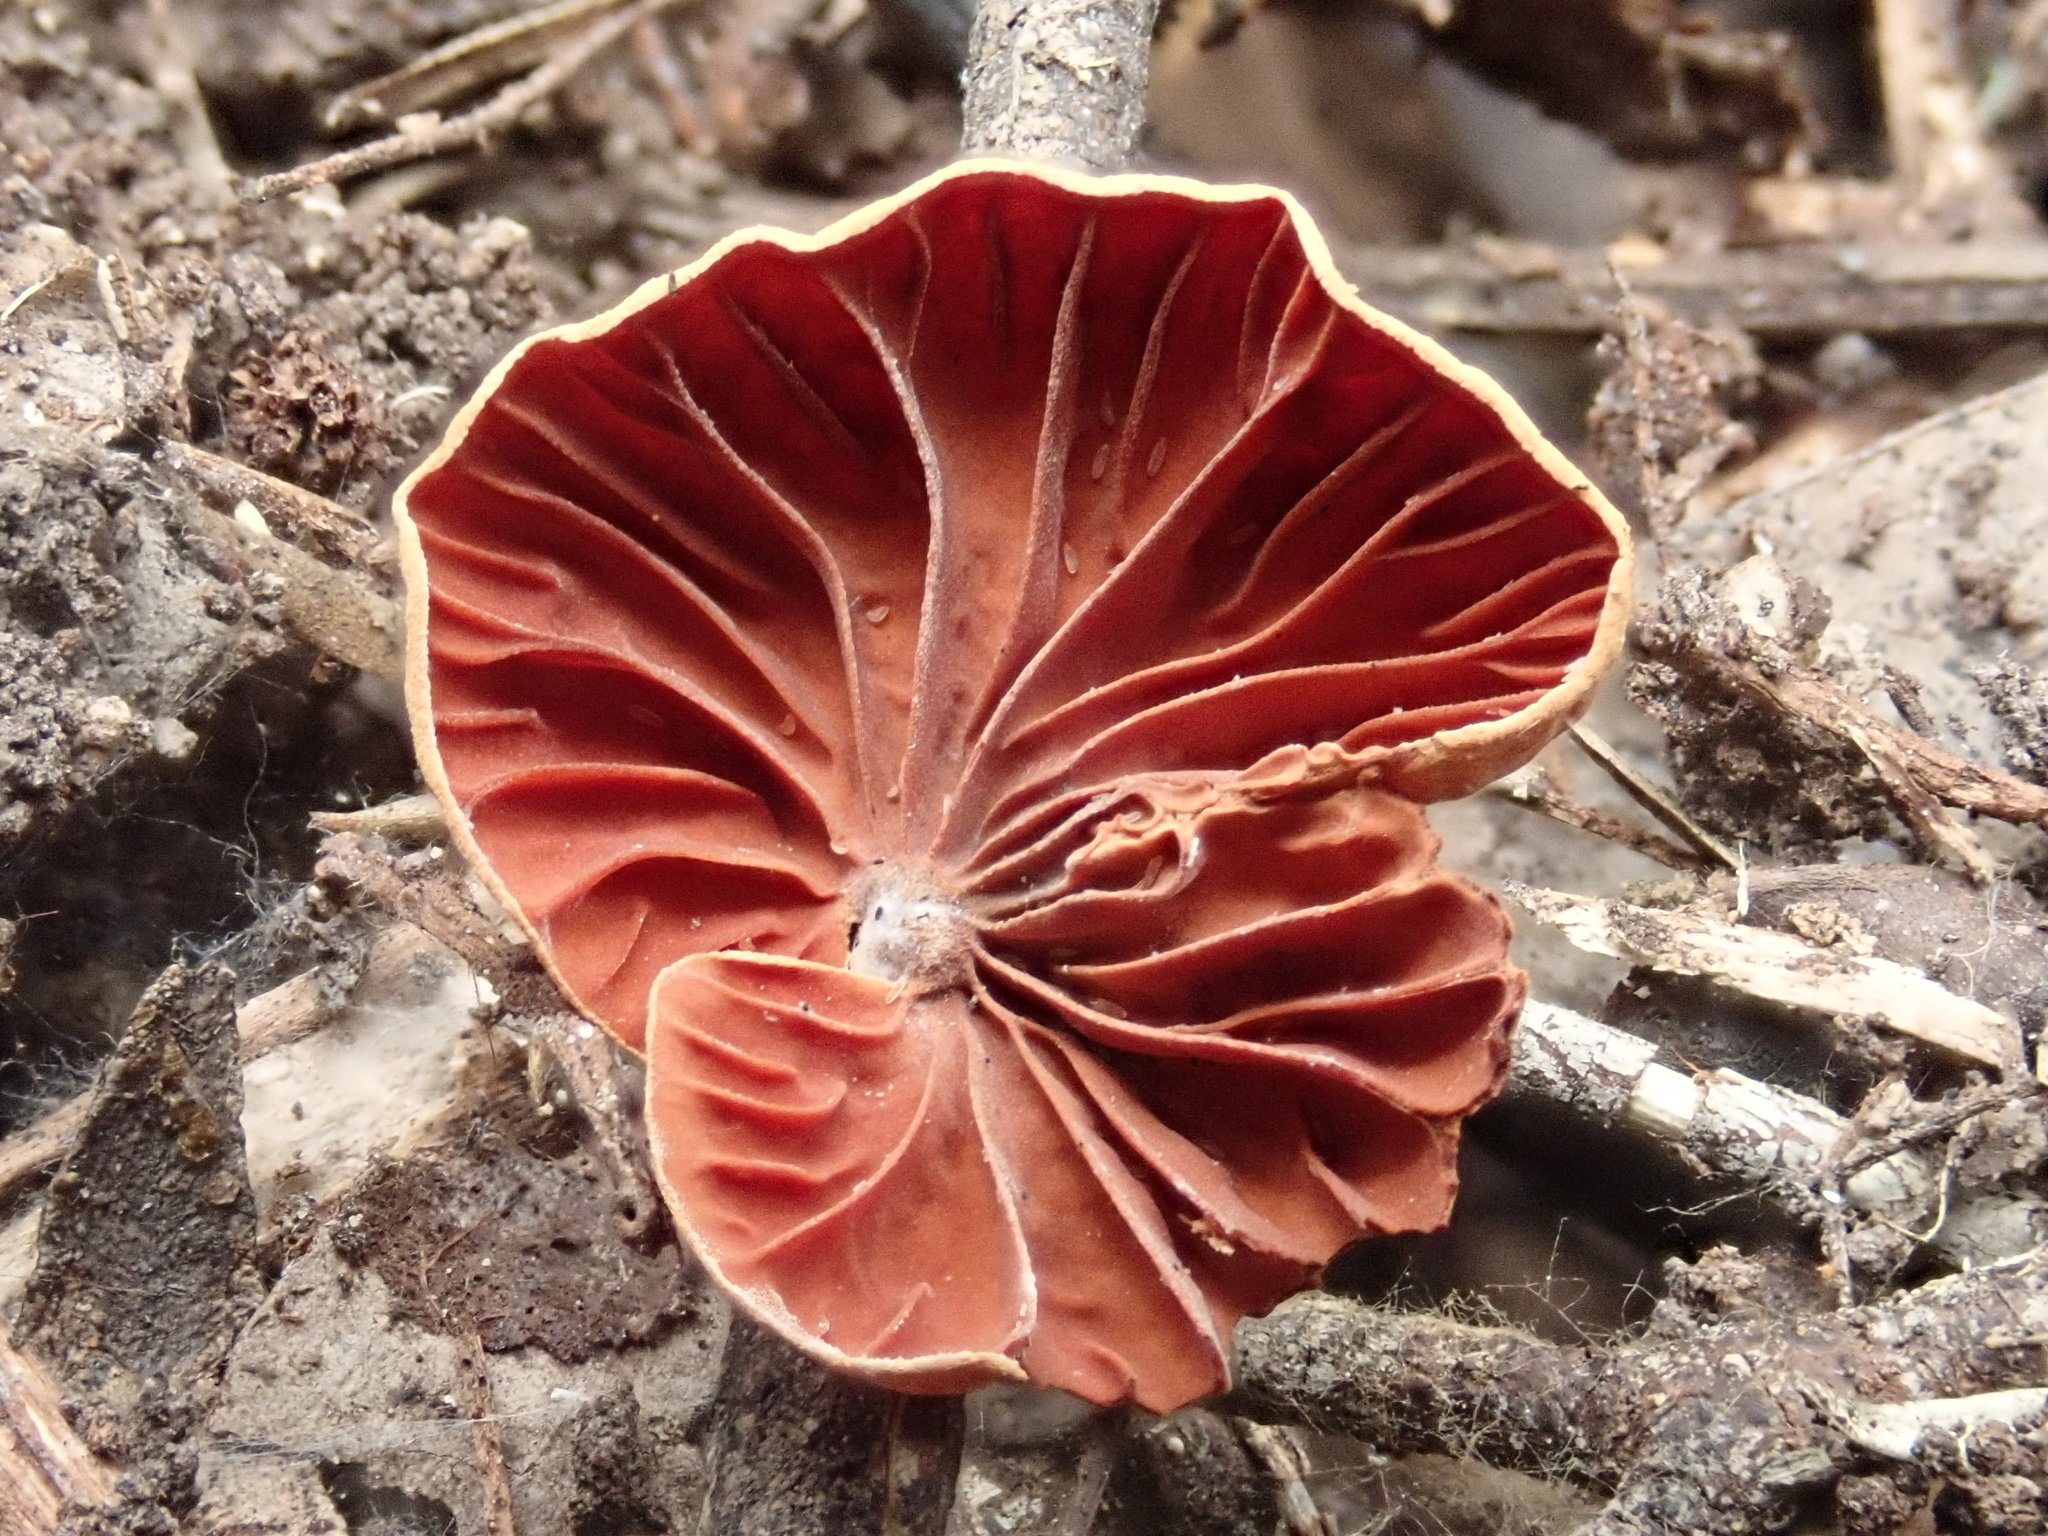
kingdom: Fungi
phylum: Basidiomycota
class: Agaricomycetes
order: Agaricales
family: Omphalotaceae
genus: Anthracophyllum
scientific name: Anthracophyllum archeri
